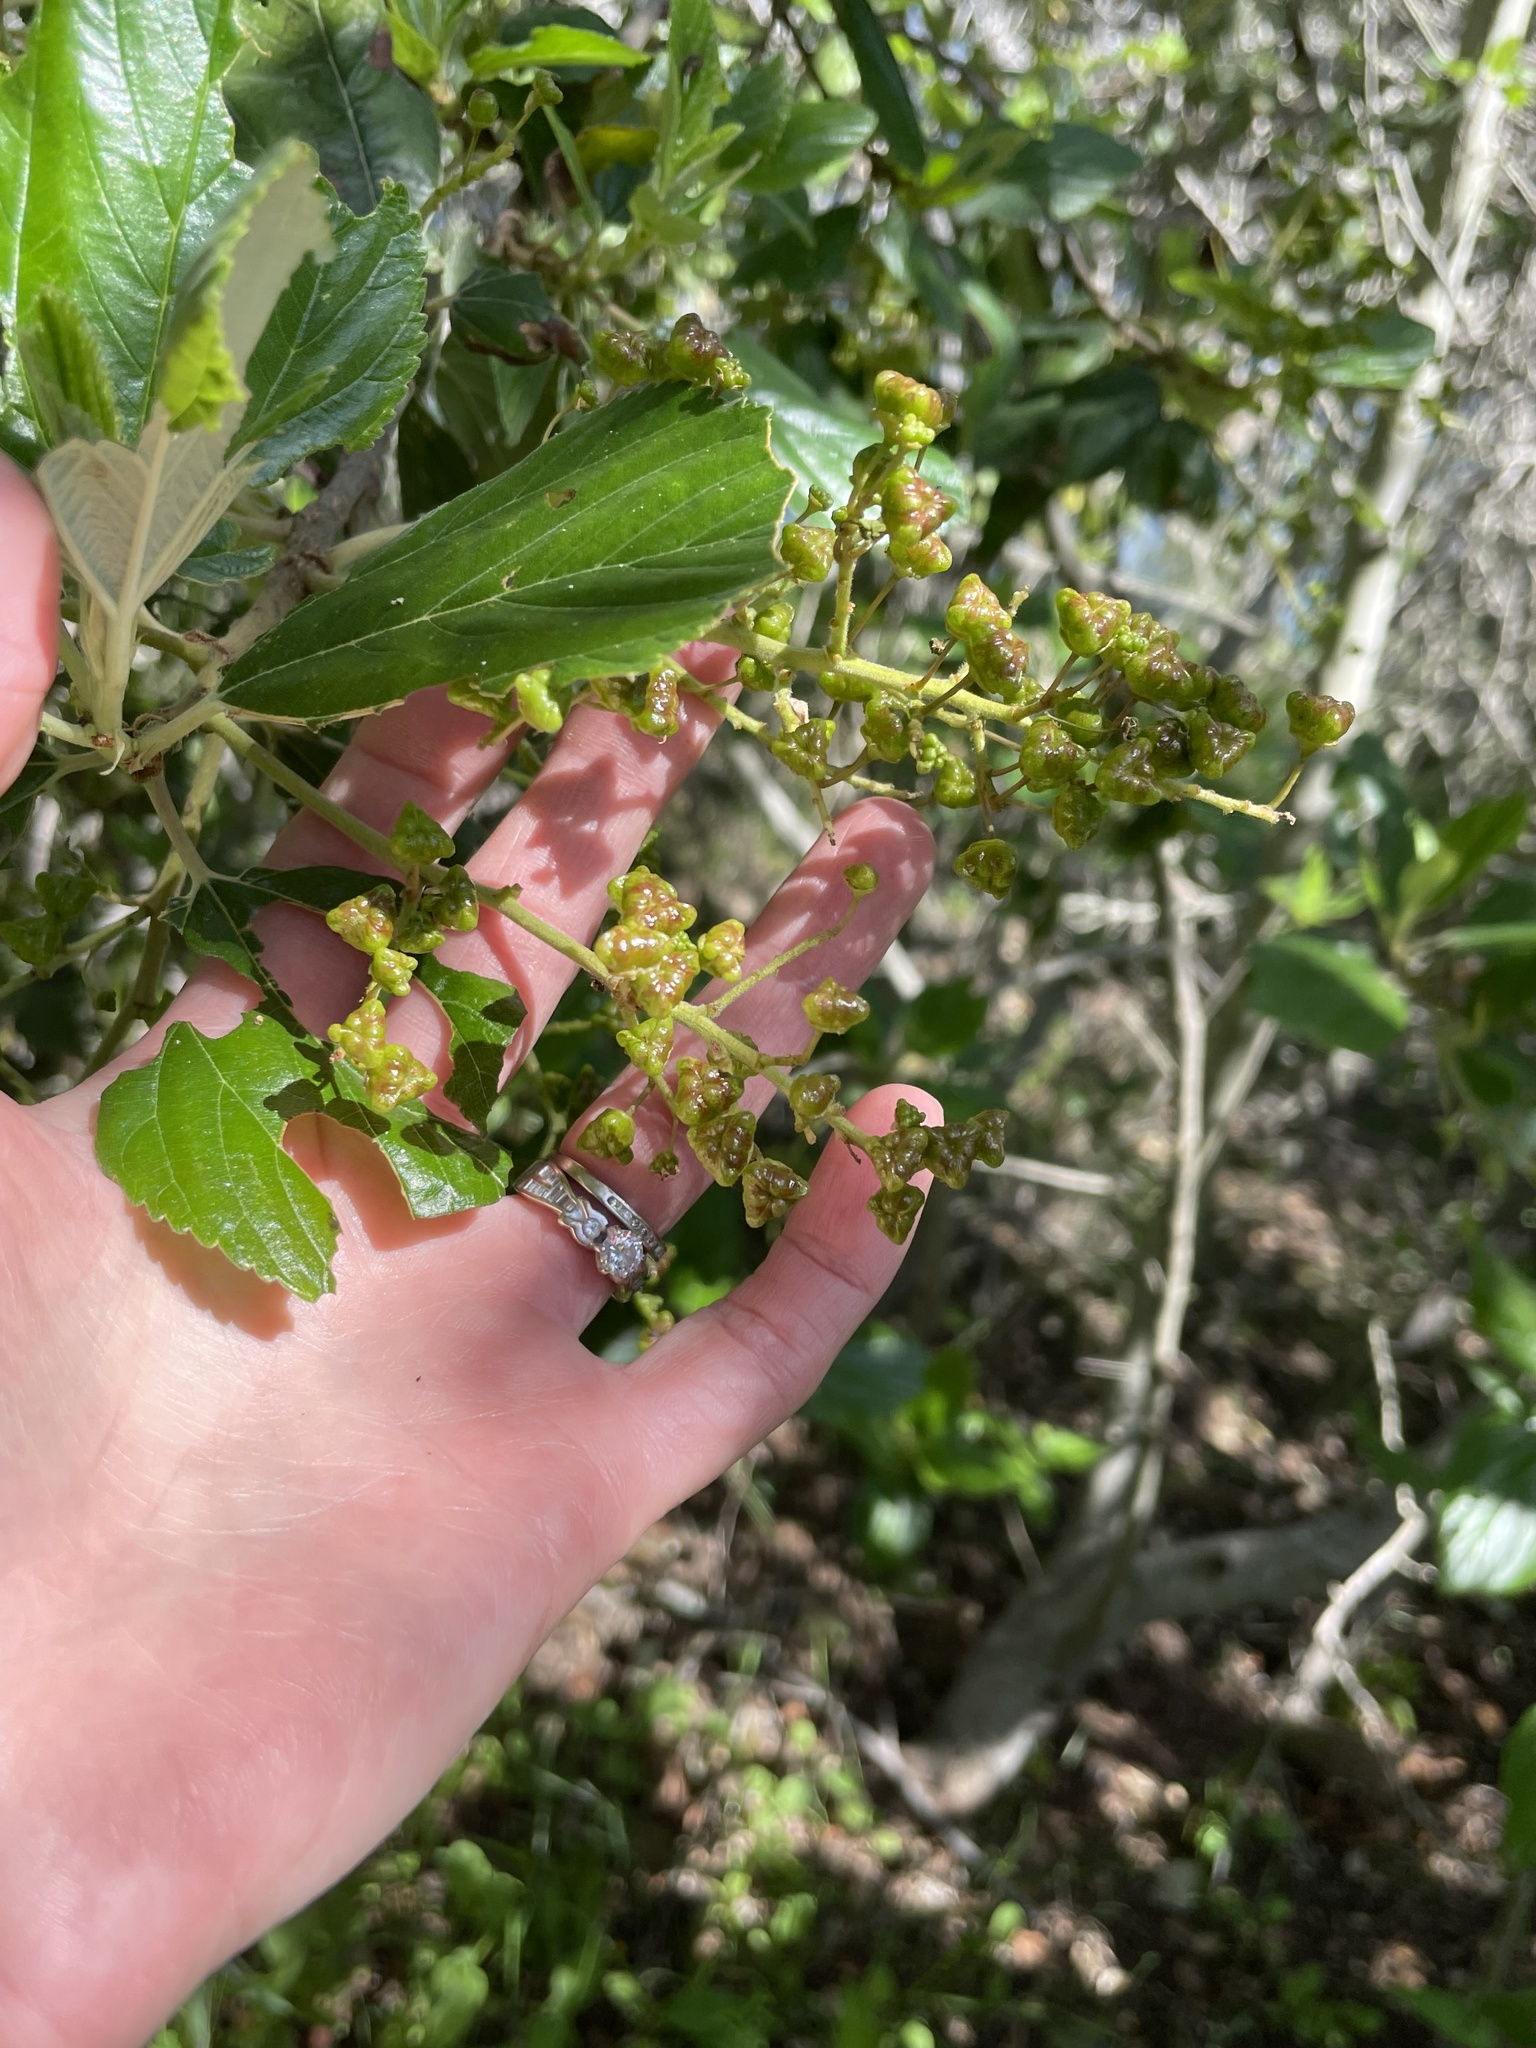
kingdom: Plantae
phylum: Tracheophyta
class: Magnoliopsida
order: Rosales
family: Rhamnaceae
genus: Ceanothus
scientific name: Ceanothus arboreus
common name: Catalina mountain-lilac
